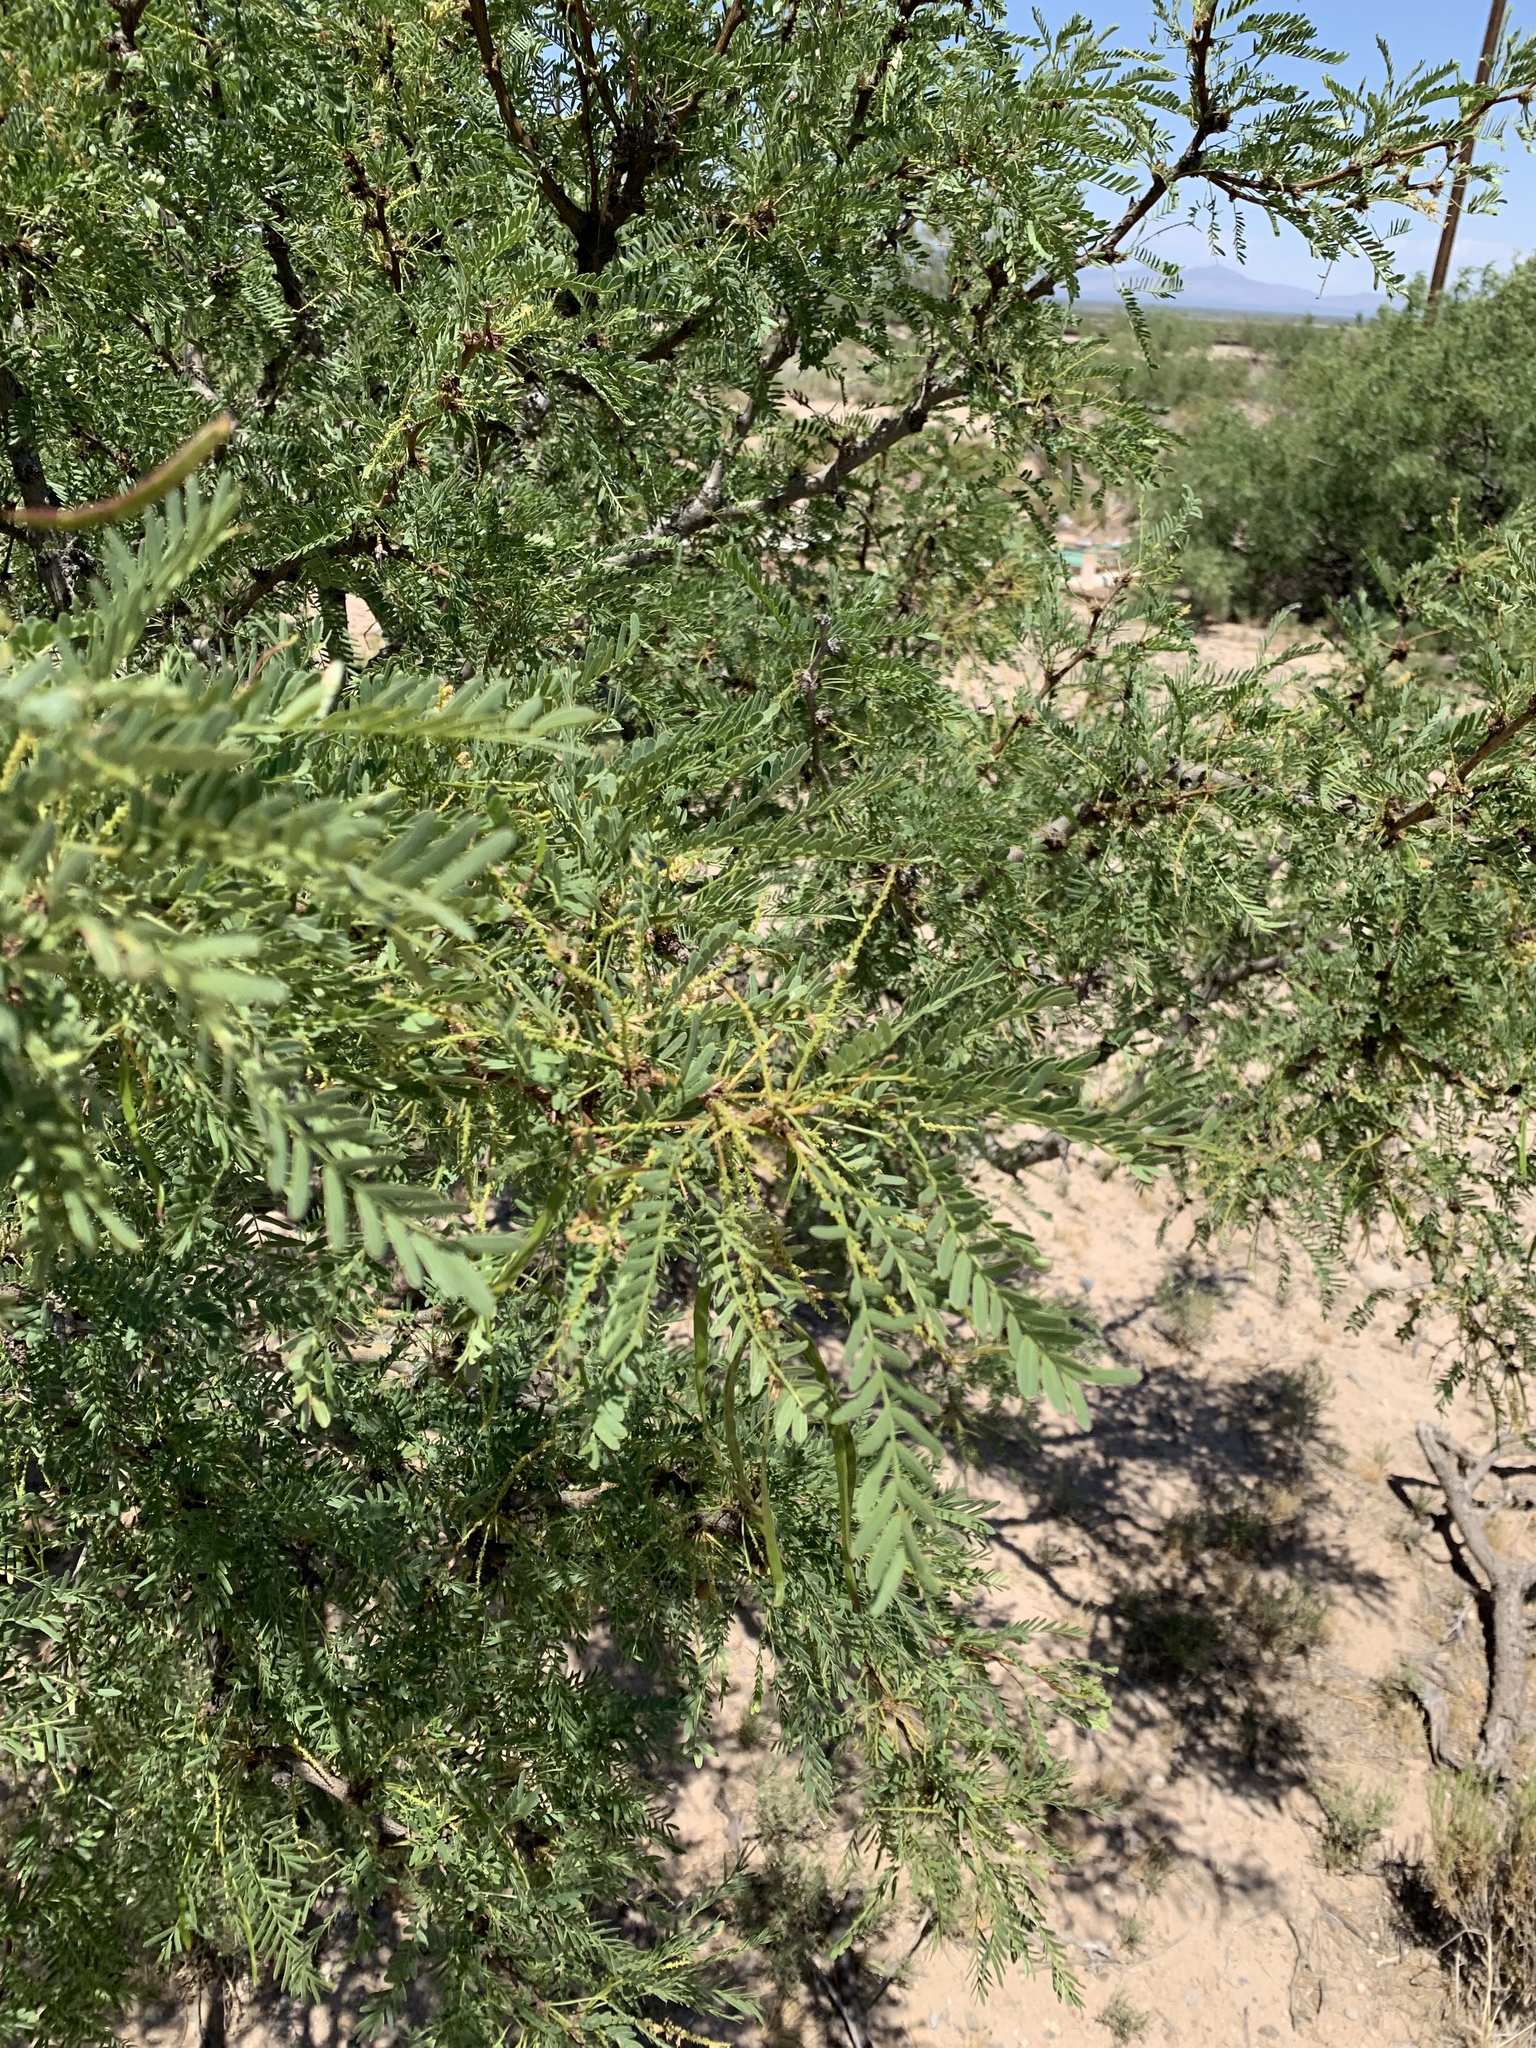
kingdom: Plantae
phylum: Tracheophyta
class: Magnoliopsida
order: Fabales
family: Fabaceae
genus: Prosopis
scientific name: Prosopis glandulosa
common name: Honey mesquite
